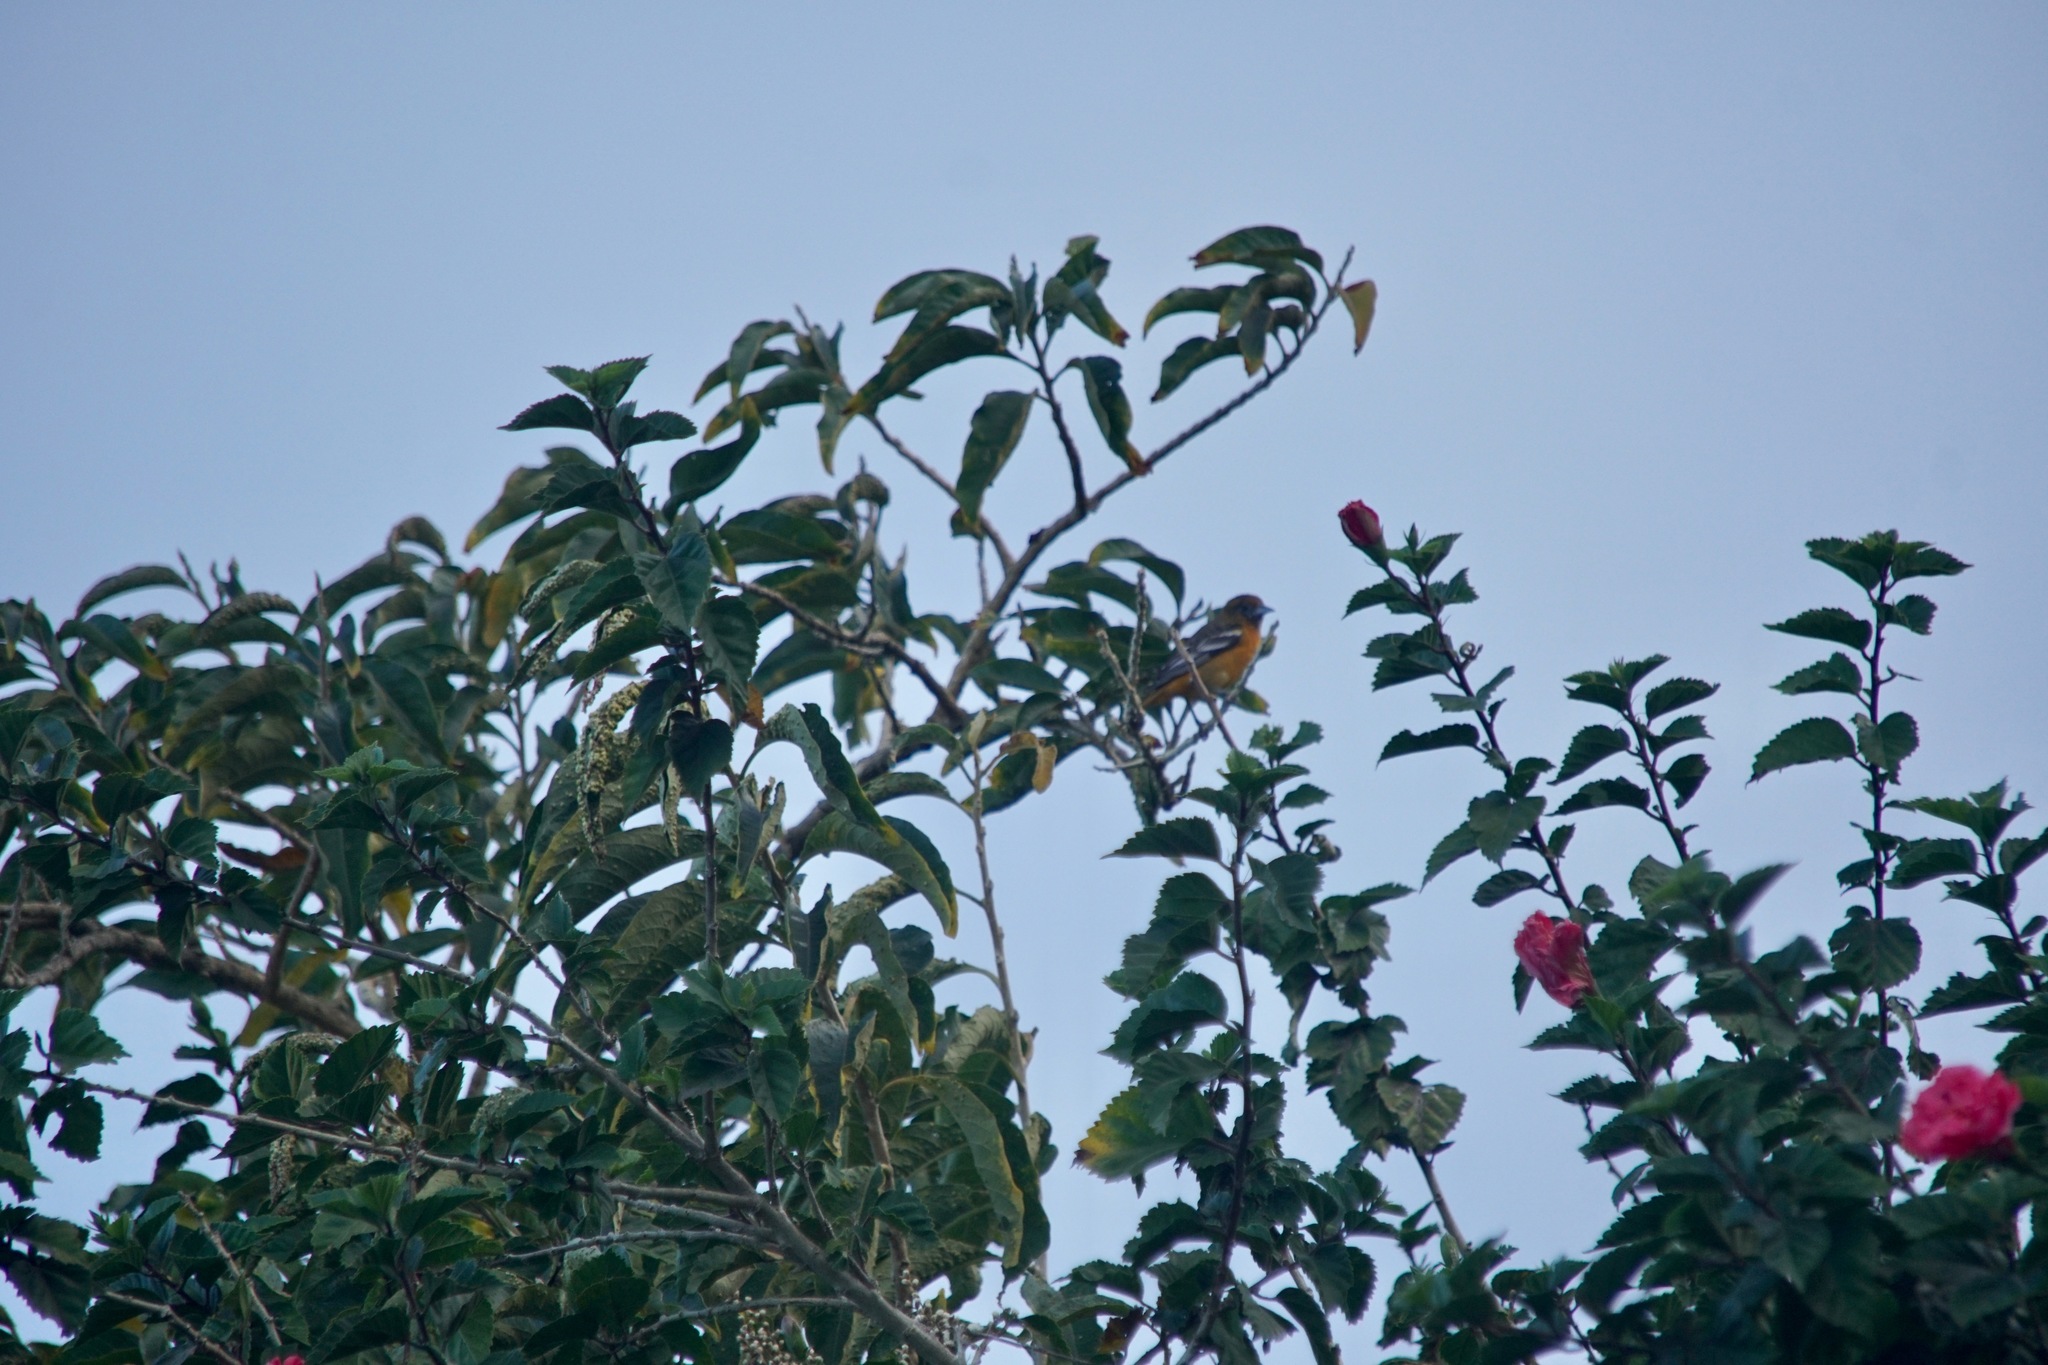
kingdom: Animalia
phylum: Chordata
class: Aves
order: Passeriformes
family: Icteridae
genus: Icterus
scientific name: Icterus galbula
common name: Baltimore oriole
